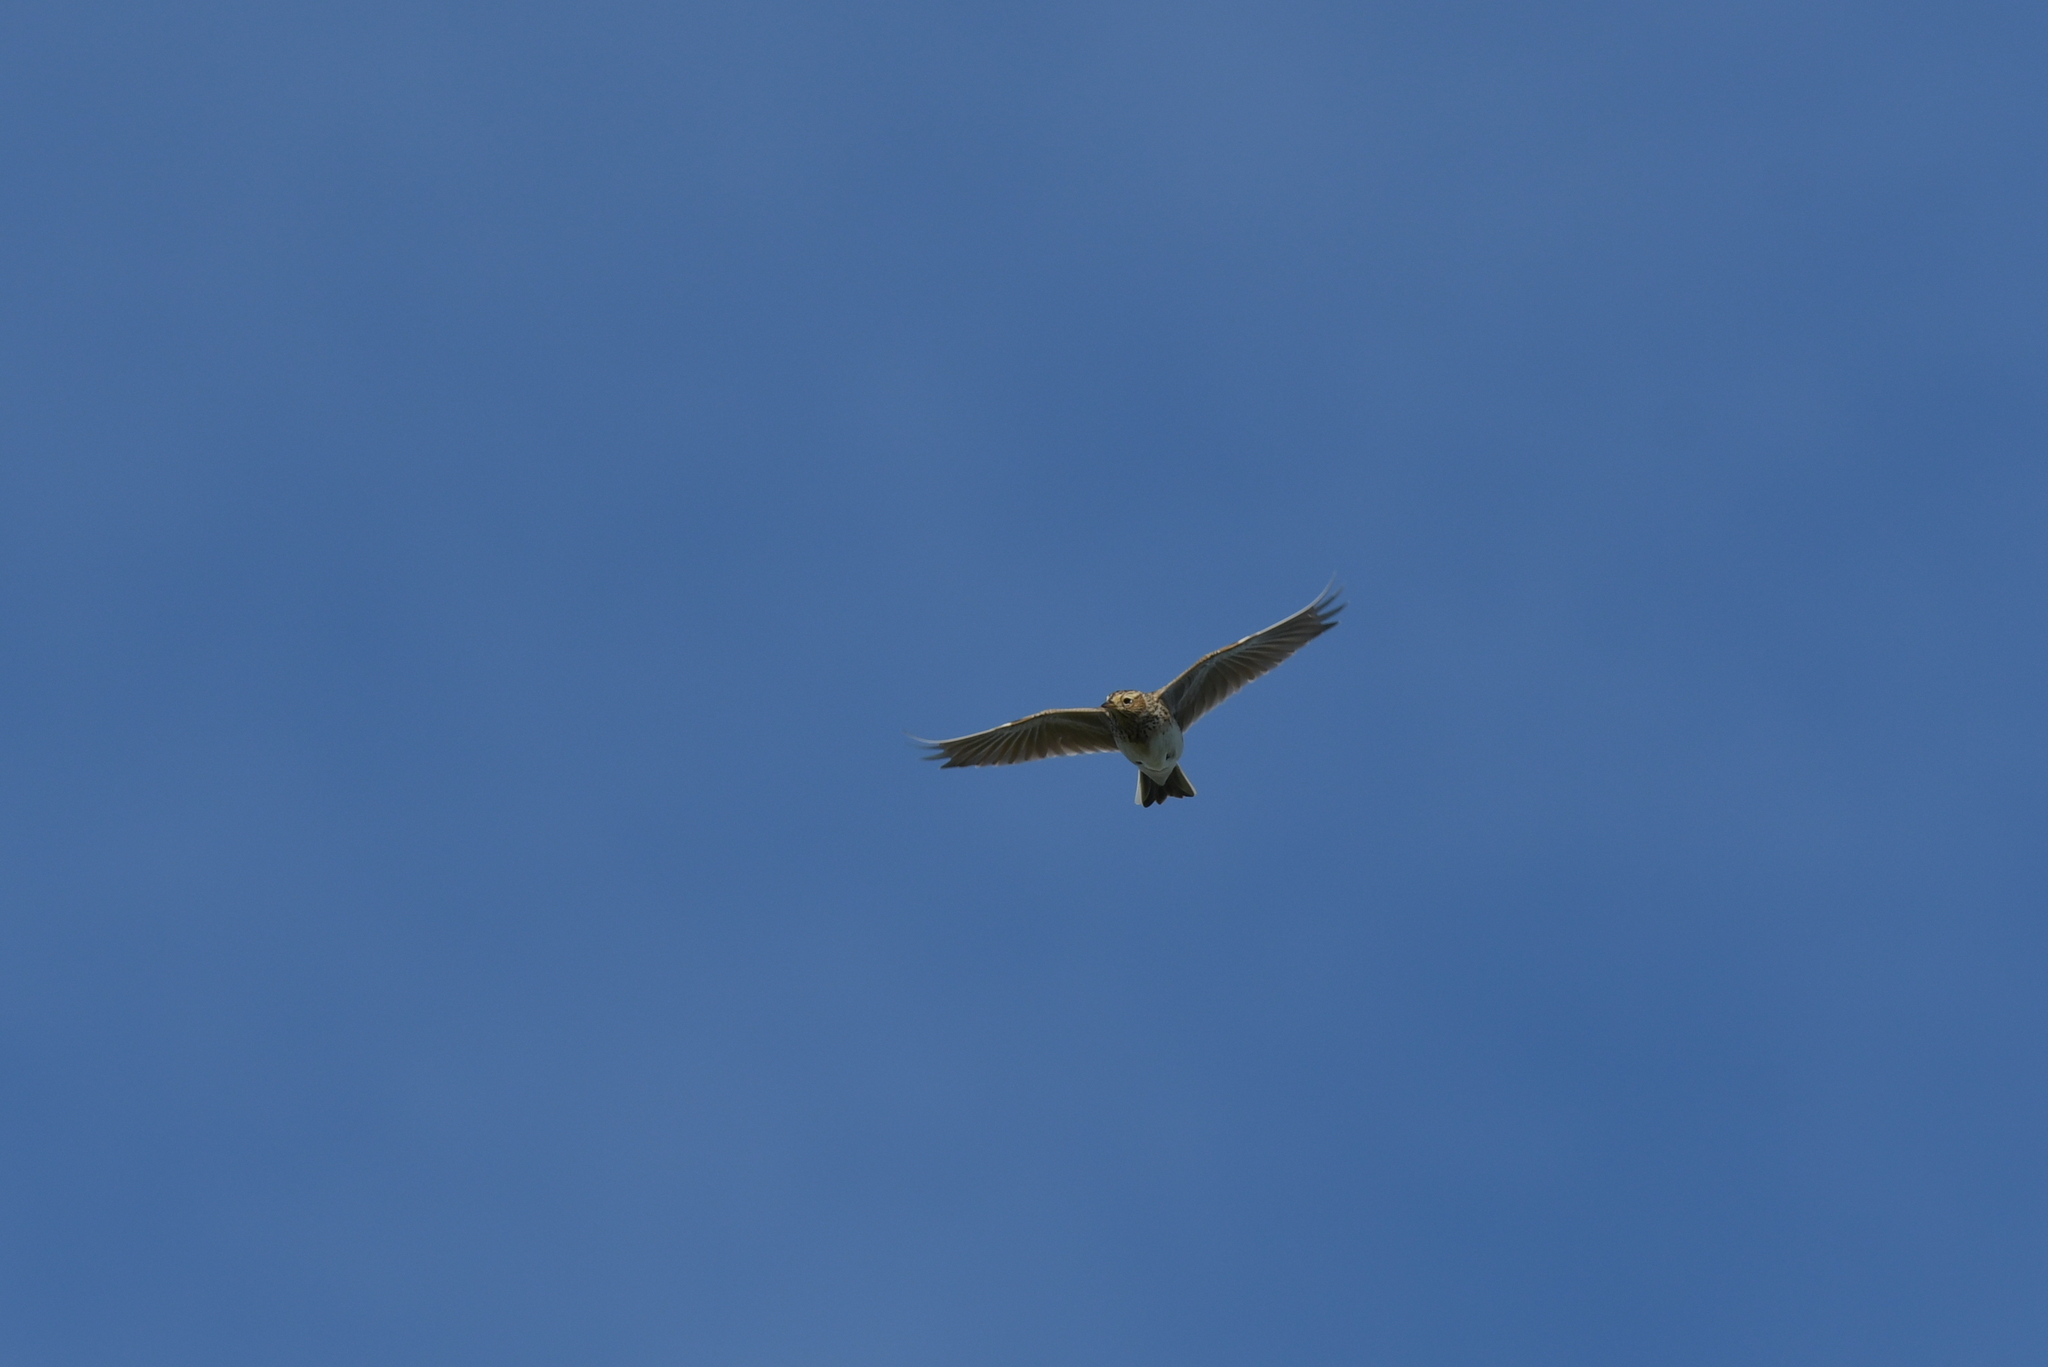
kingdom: Animalia
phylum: Chordata
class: Aves
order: Passeriformes
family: Alaudidae
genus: Alauda
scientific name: Alauda arvensis
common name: Eurasian skylark
